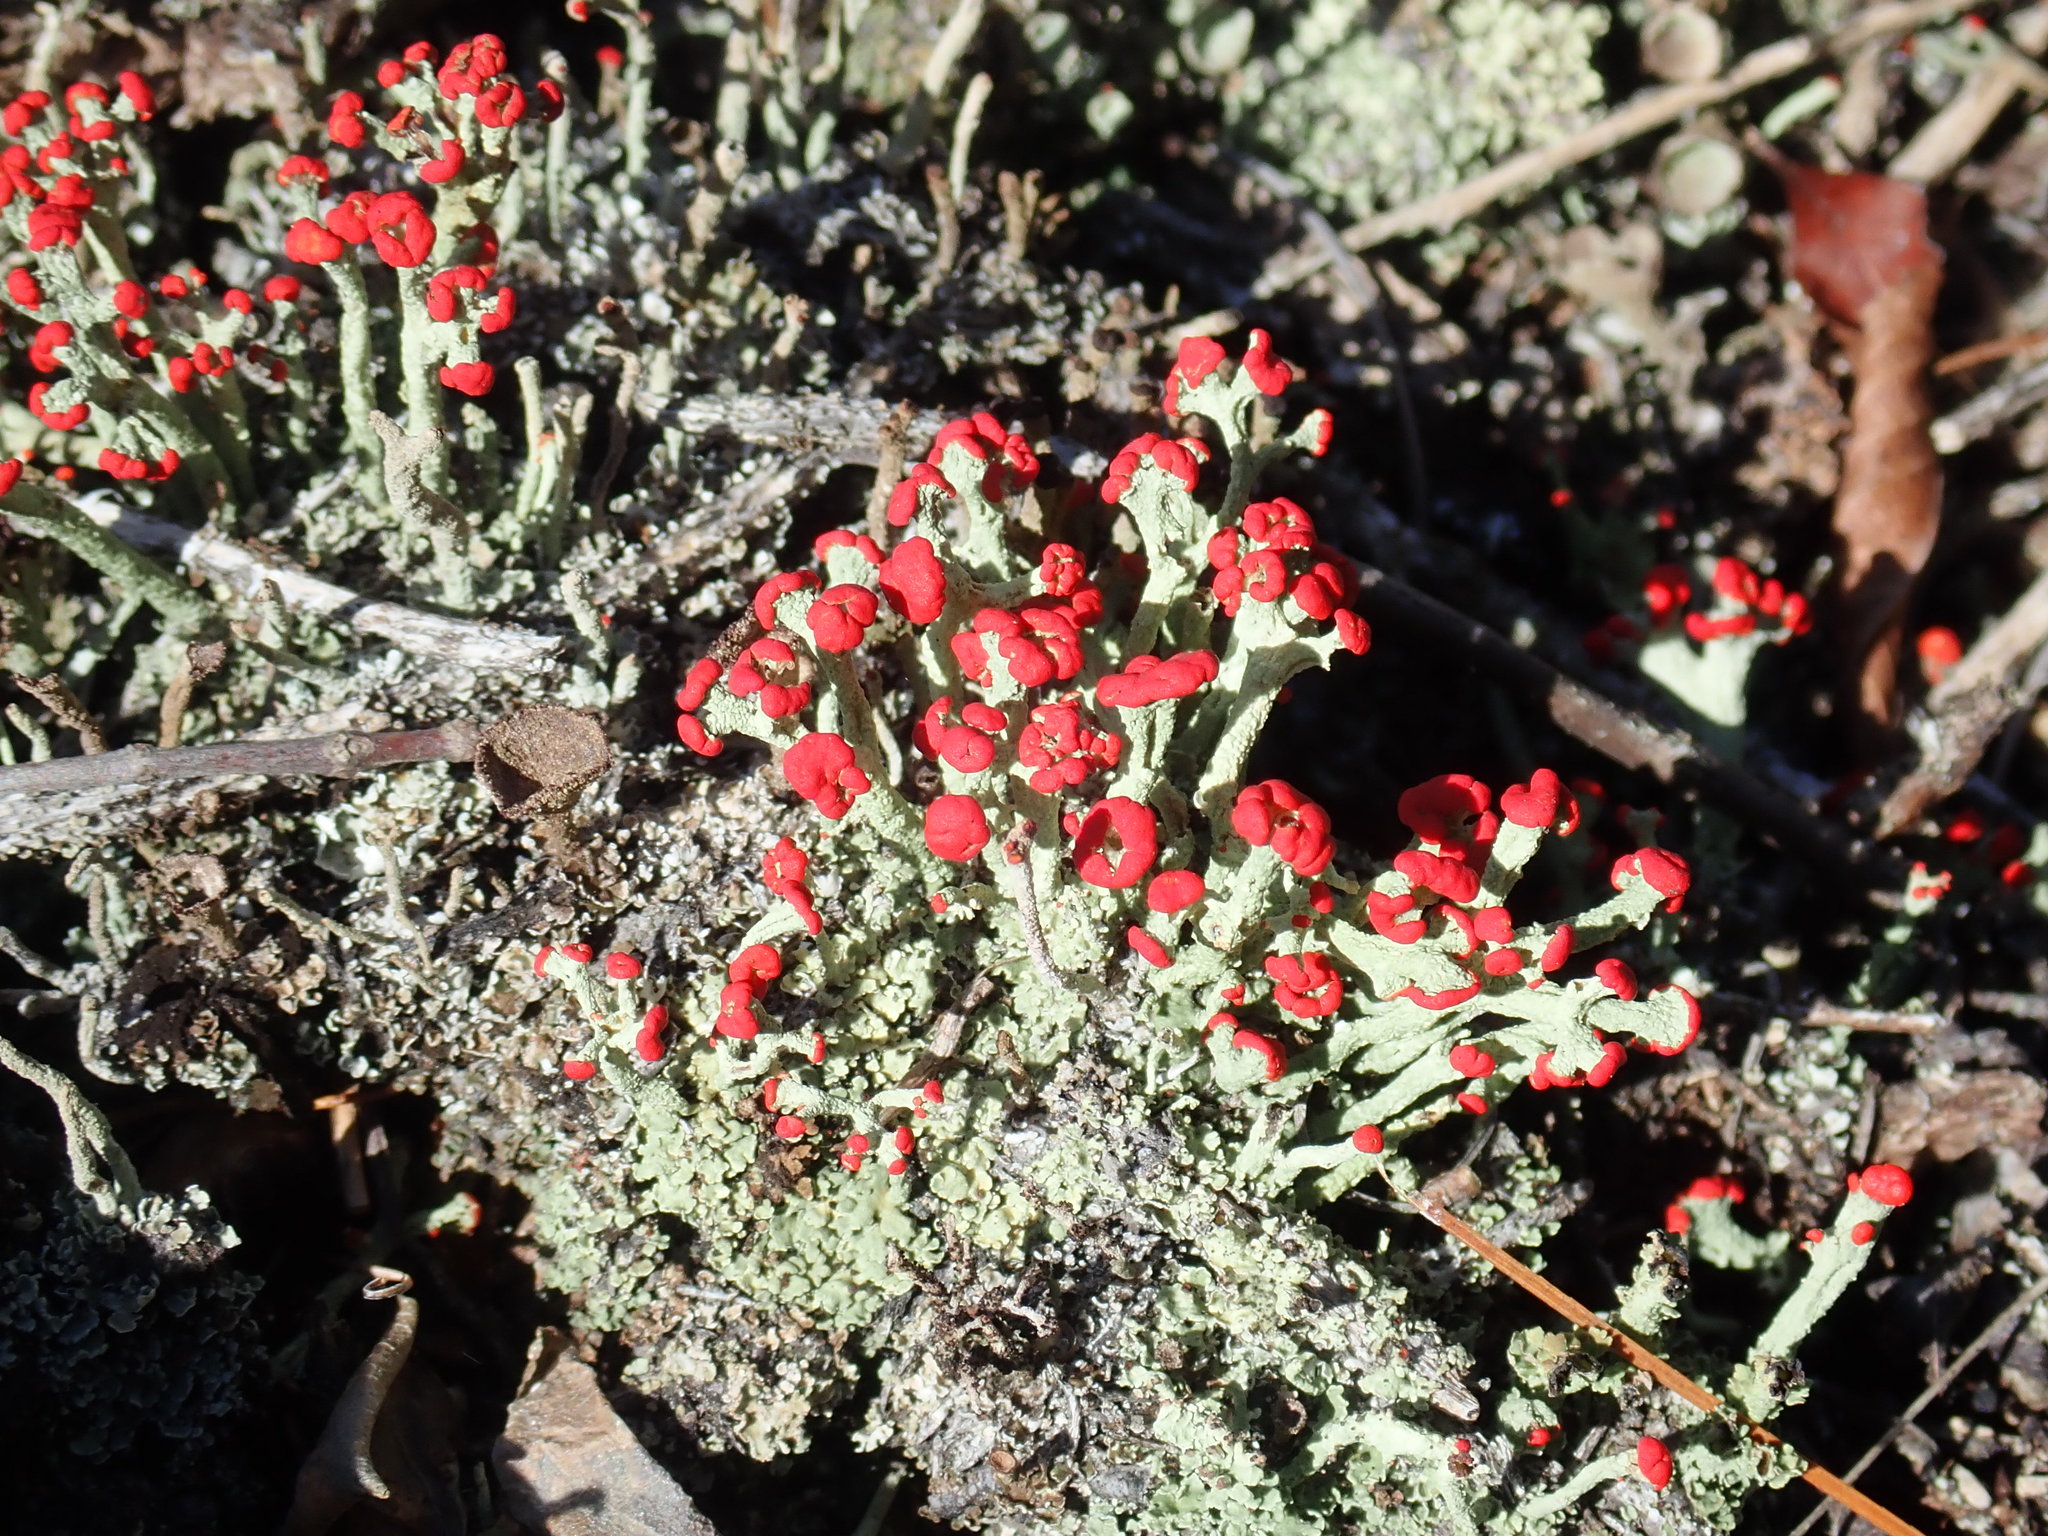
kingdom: Fungi
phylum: Ascomycota
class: Lecanoromycetes
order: Lecanorales
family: Cladoniaceae
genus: Cladonia
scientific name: Cladonia cristatella
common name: British soldier lichen
